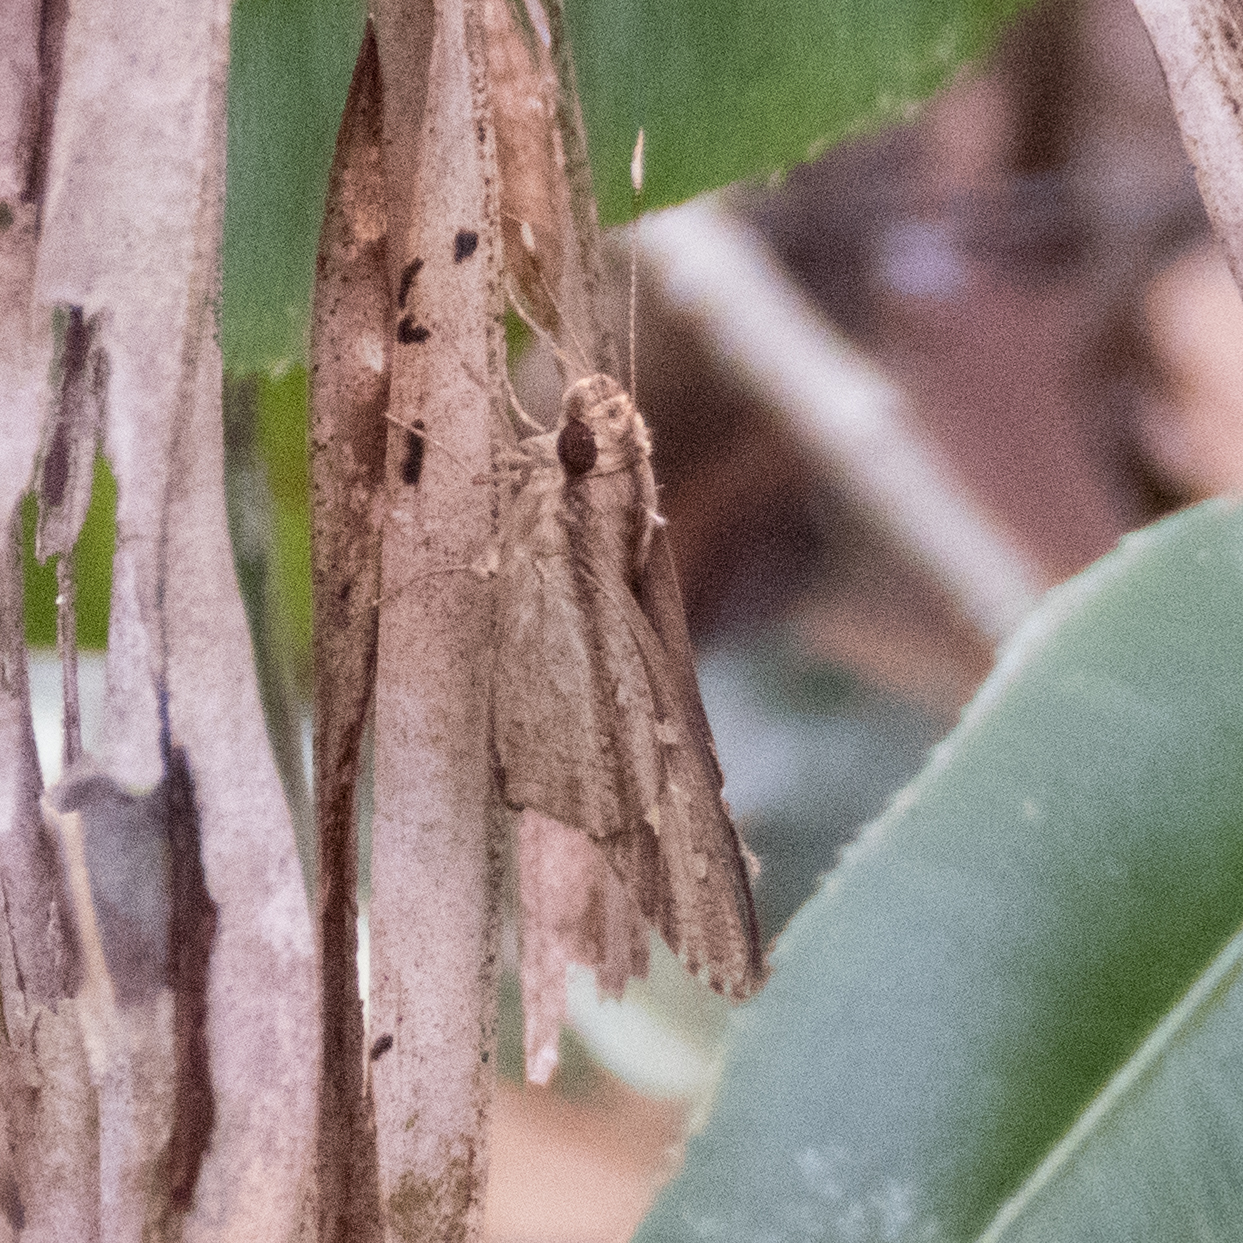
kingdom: Animalia
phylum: Arthropoda
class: Insecta
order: Lepidoptera
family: Hesperiidae
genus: Hidari
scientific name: Hidari bhawani
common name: Veined palmer
